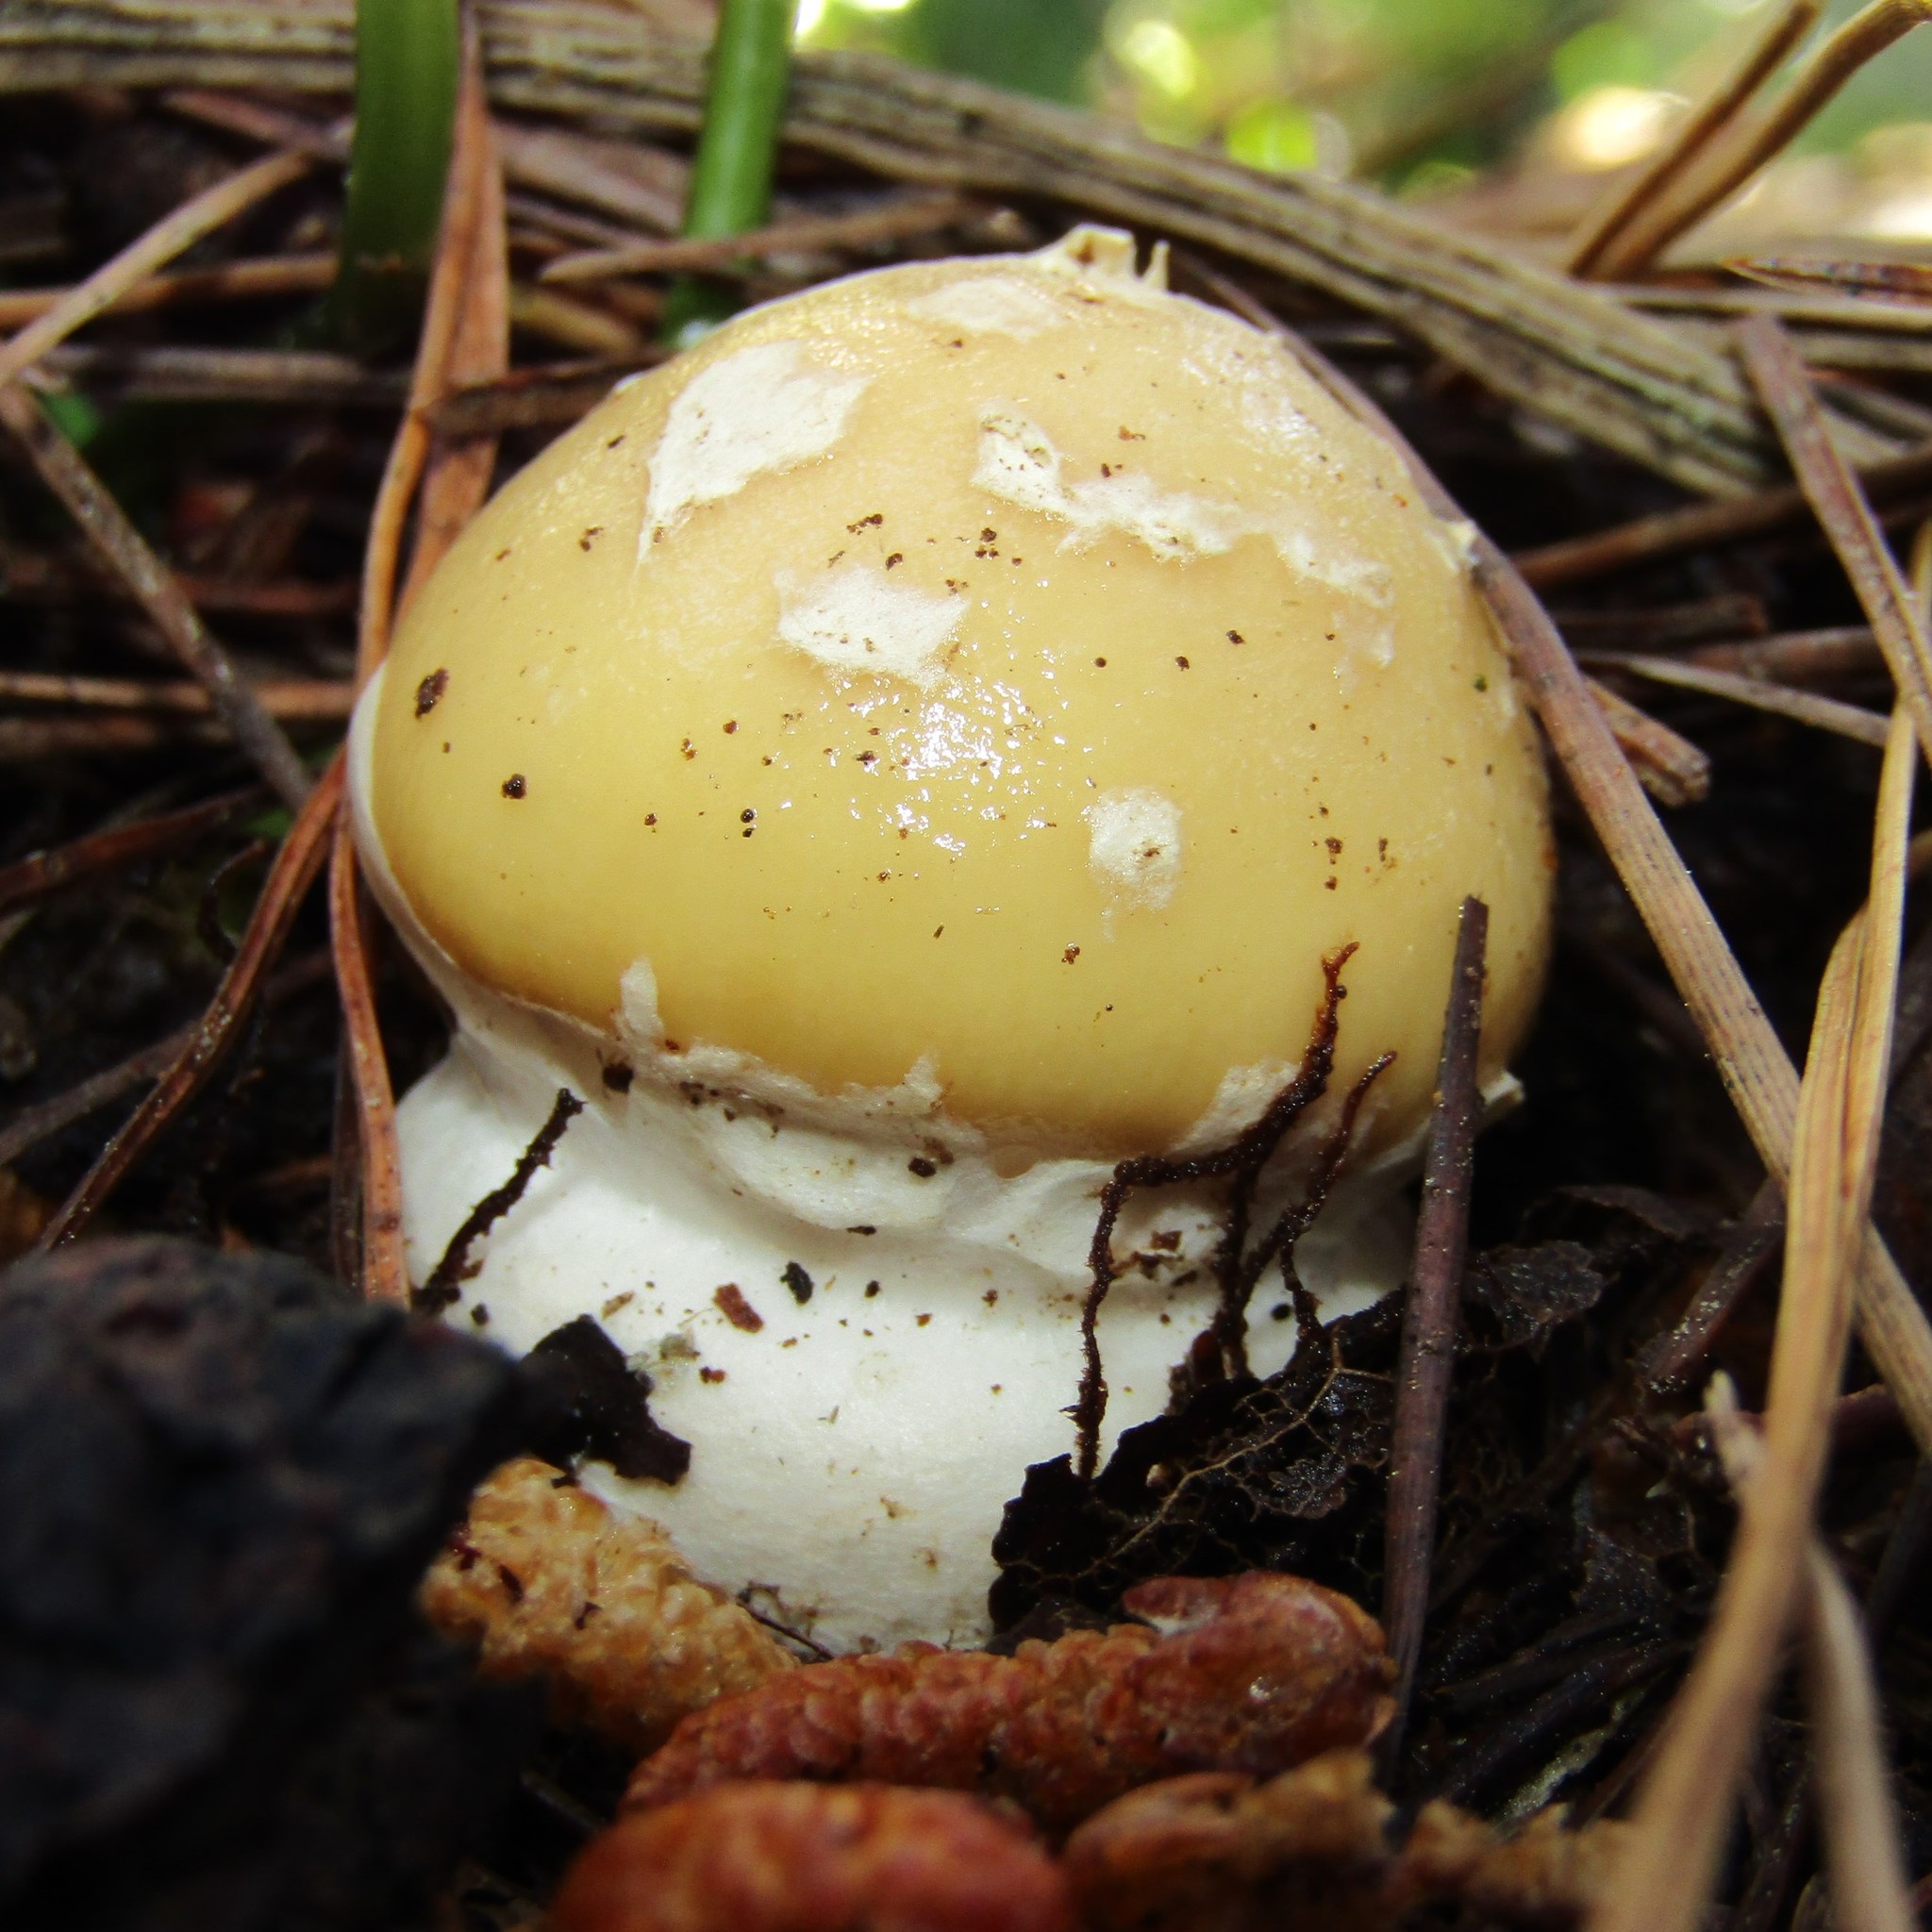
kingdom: Fungi
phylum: Basidiomycota
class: Agaricomycetes
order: Agaricales
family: Amanitaceae
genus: Amanita
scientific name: Amanita gemmata
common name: Jewelled amanita
